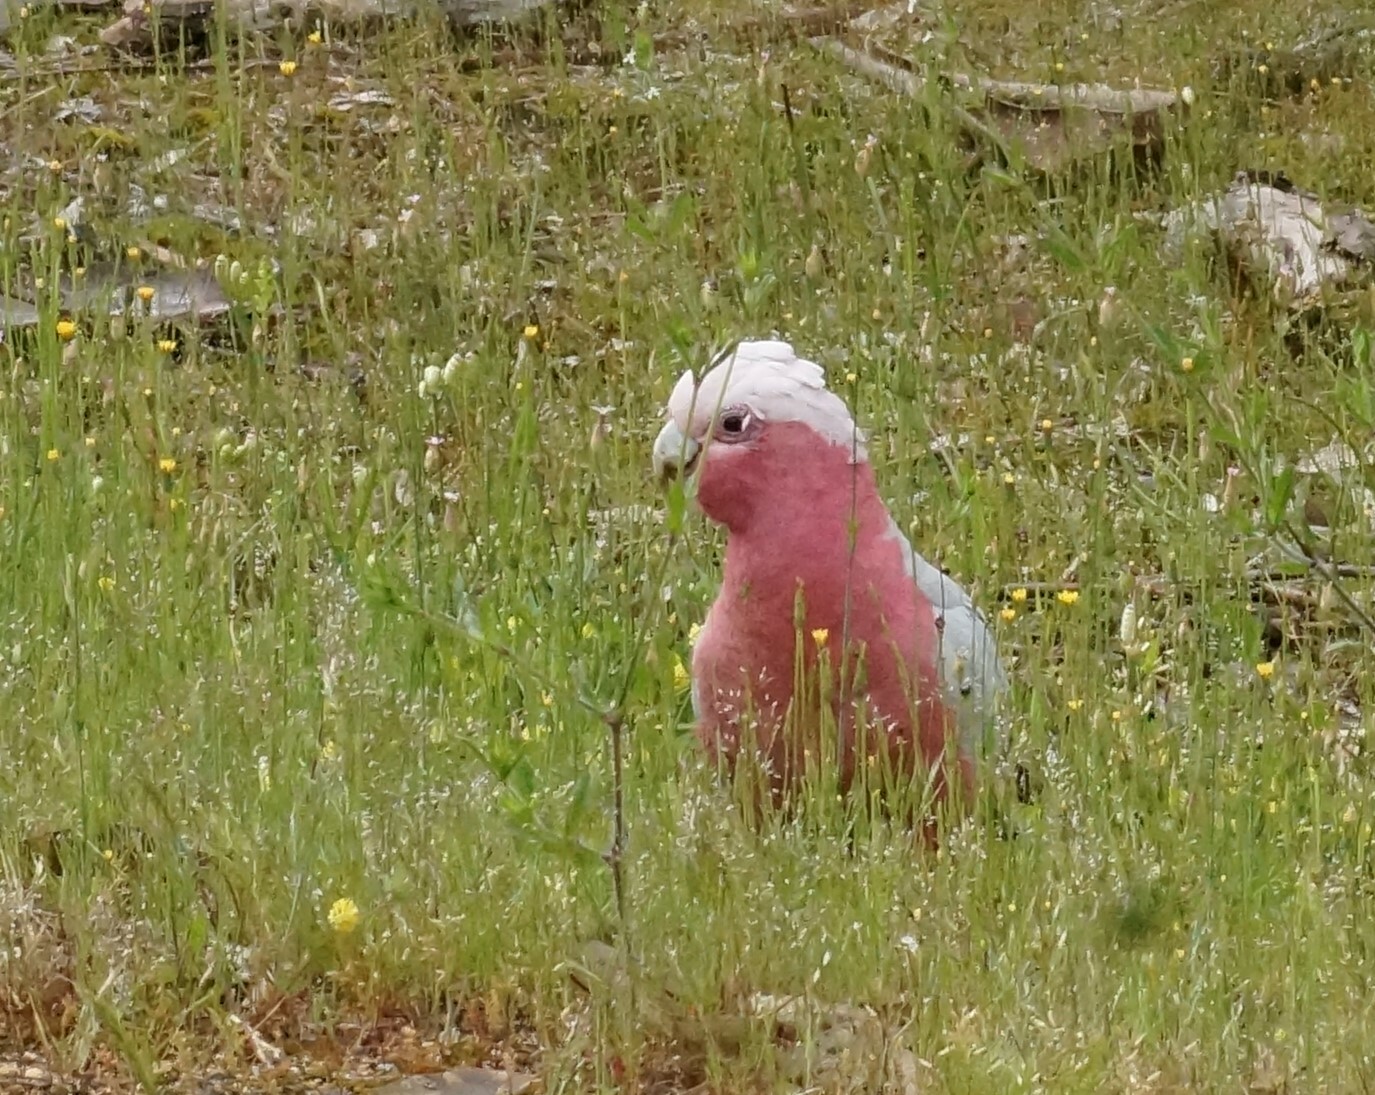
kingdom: Animalia
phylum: Chordata
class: Aves
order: Psittaciformes
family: Psittacidae
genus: Eolophus
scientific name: Eolophus roseicapilla
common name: Galah
